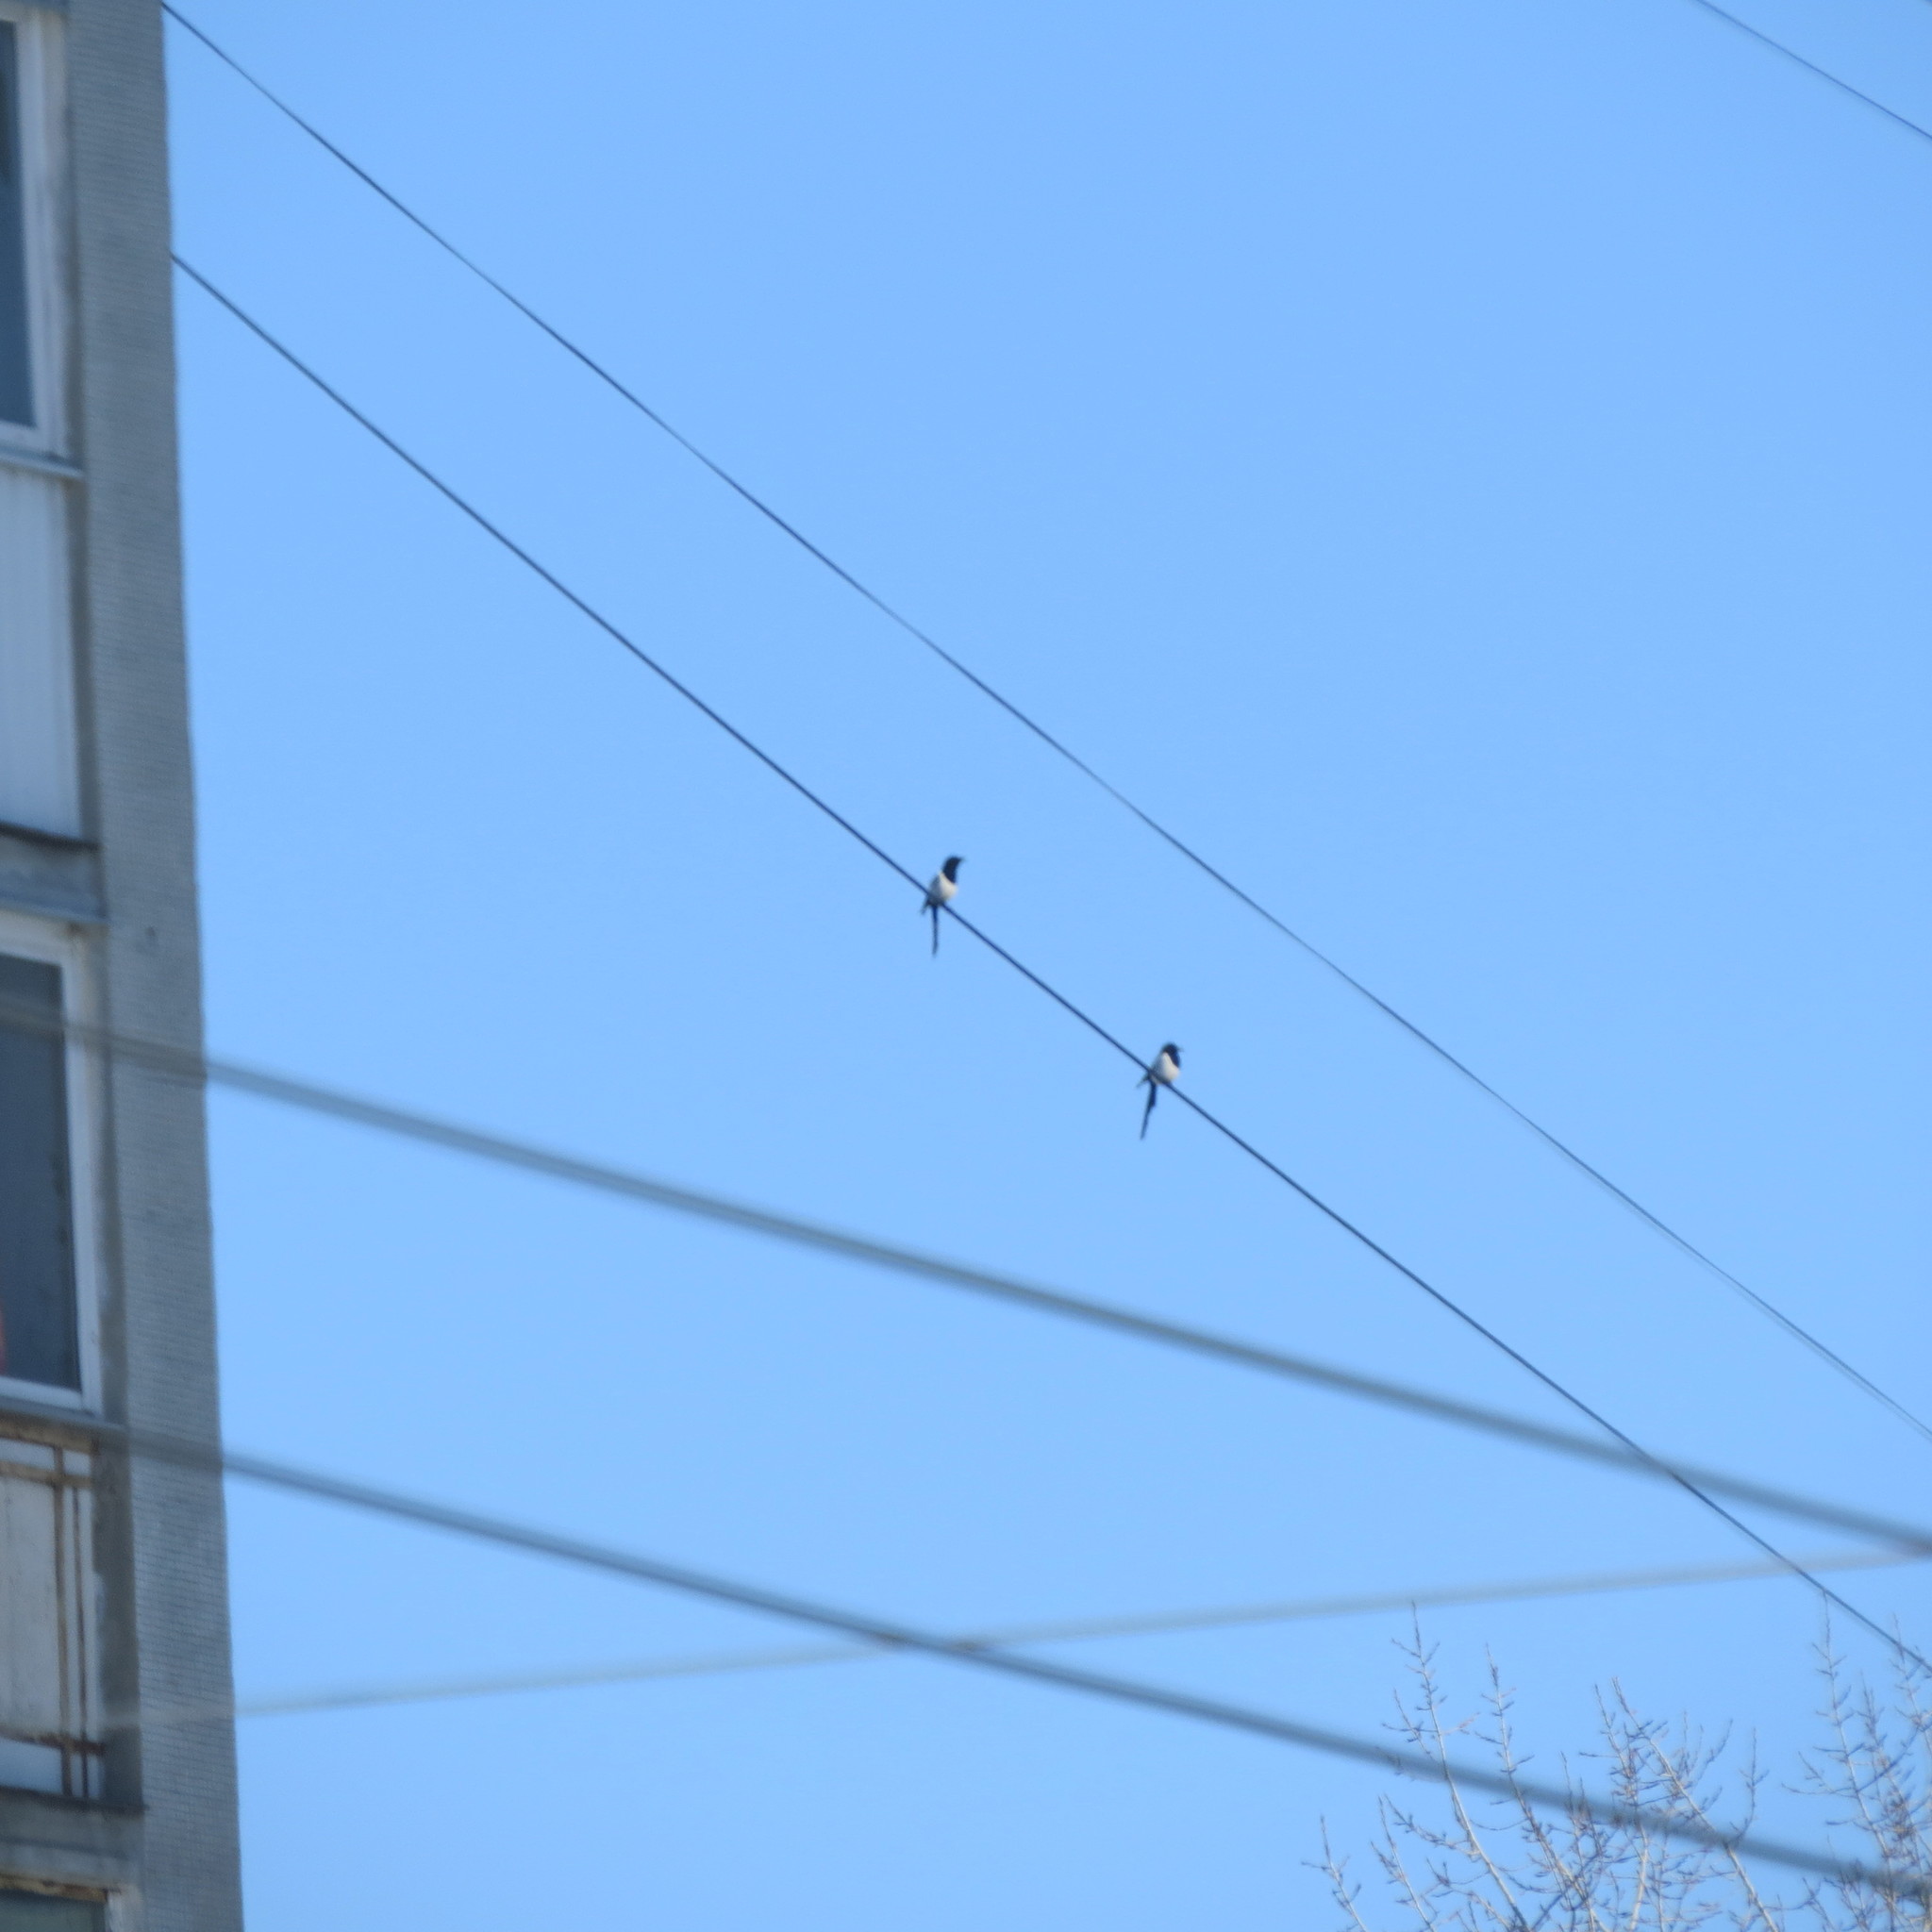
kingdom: Animalia
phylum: Chordata
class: Aves
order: Passeriformes
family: Corvidae
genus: Pica
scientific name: Pica pica
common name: Eurasian magpie
